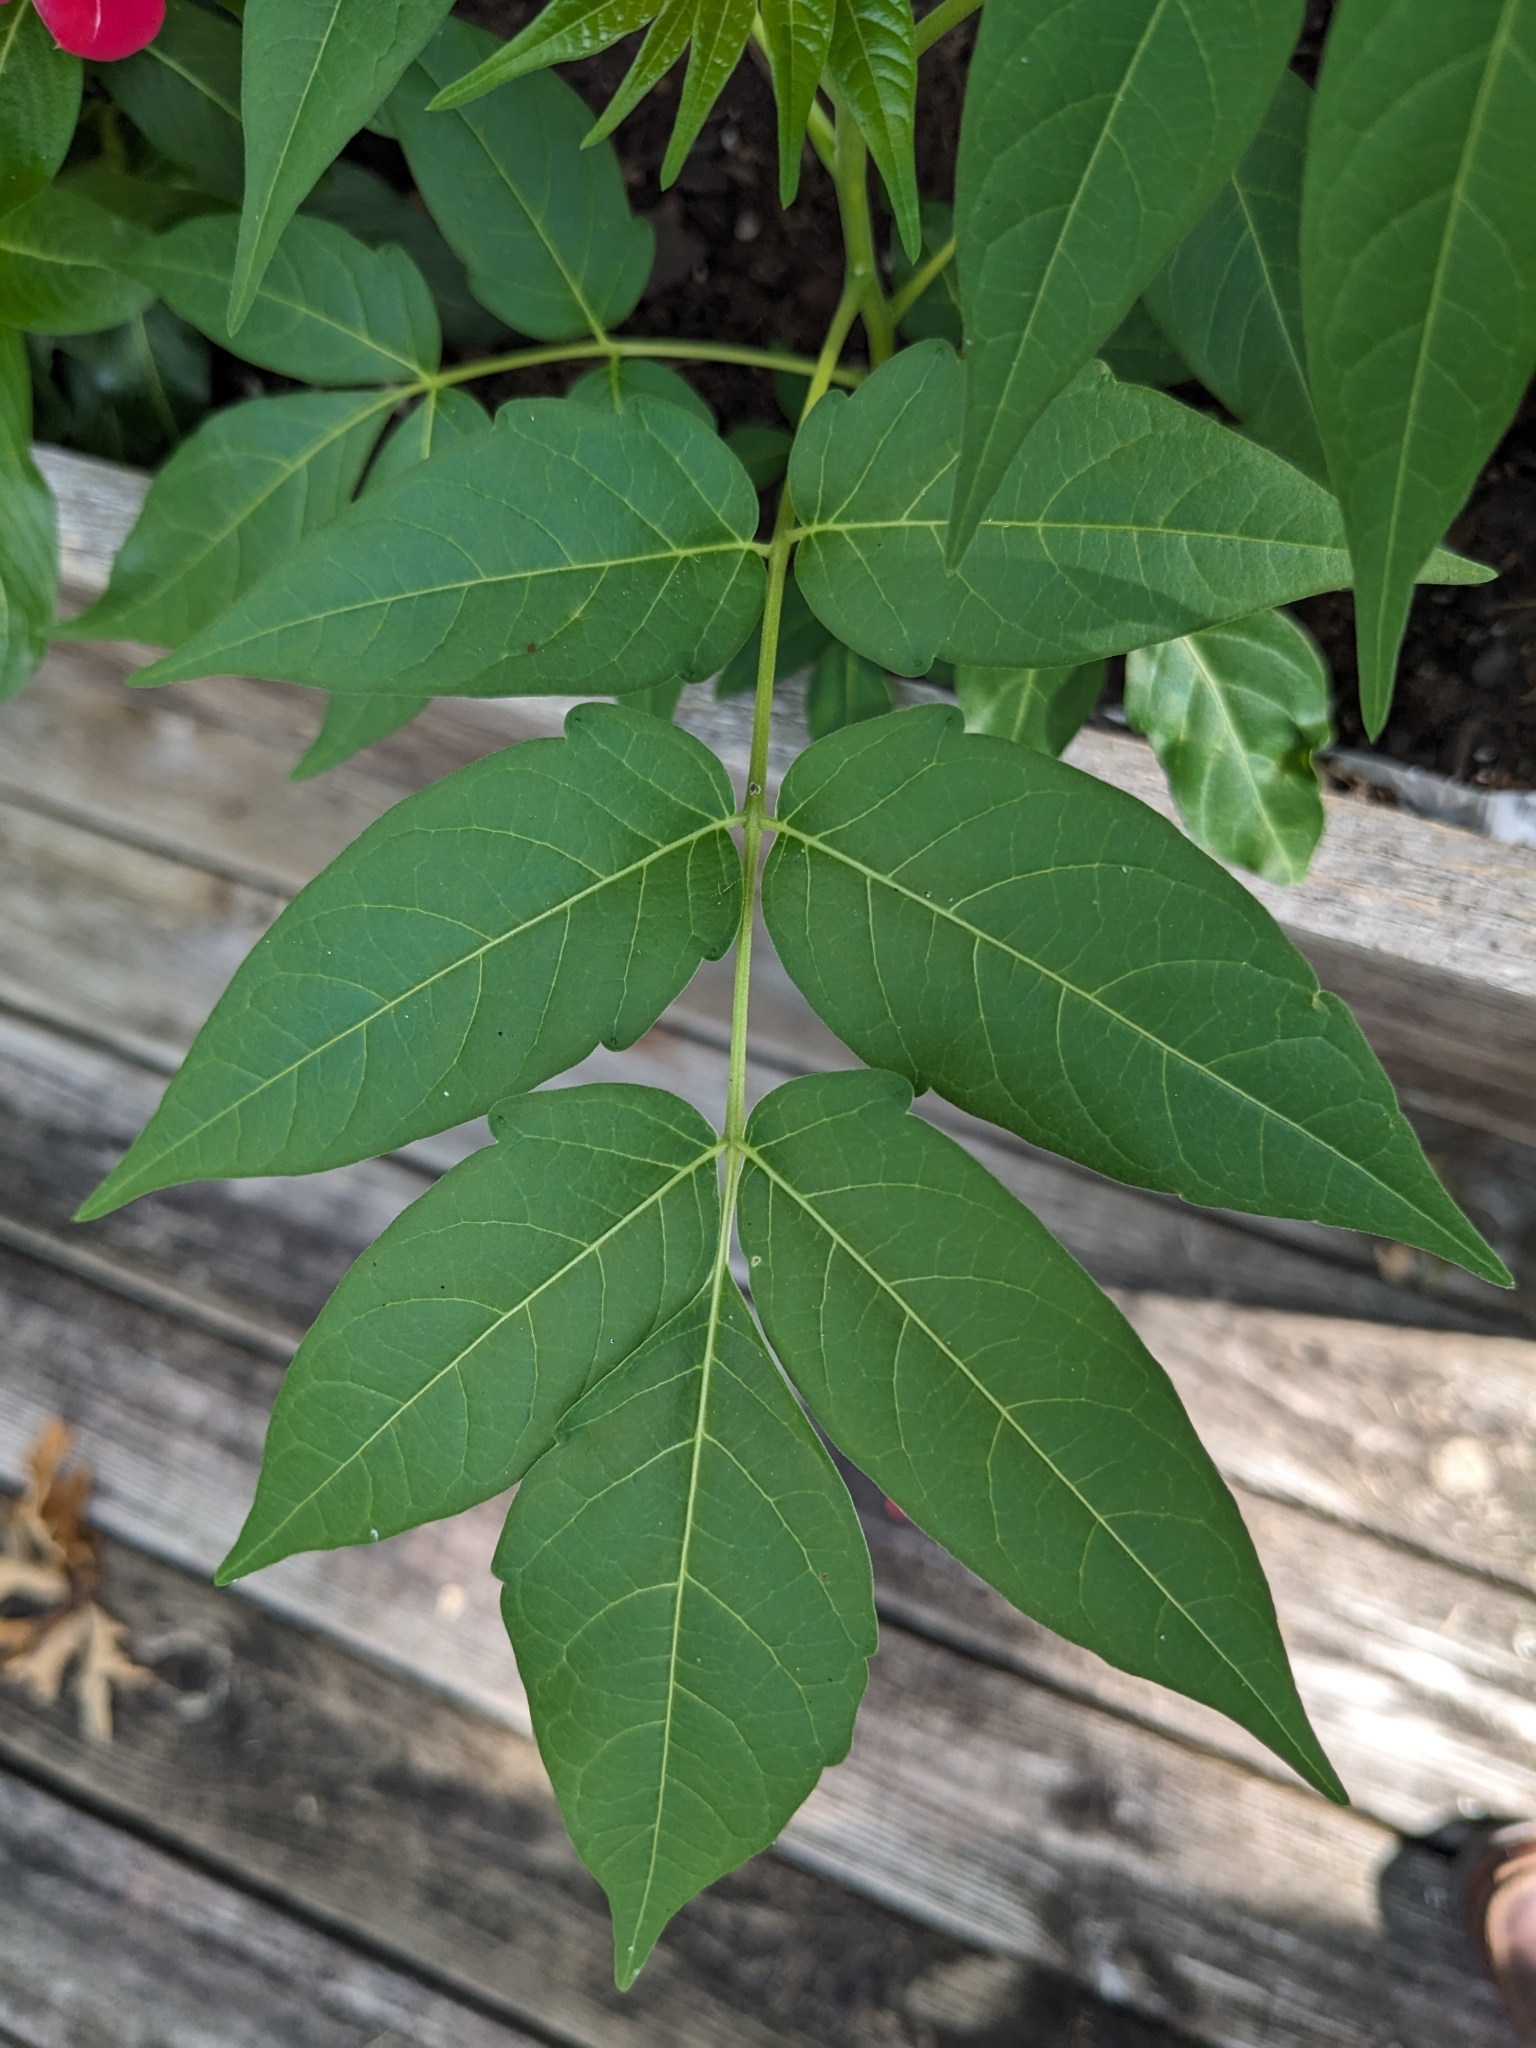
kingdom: Plantae
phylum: Tracheophyta
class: Magnoliopsida
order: Sapindales
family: Simaroubaceae
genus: Ailanthus
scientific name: Ailanthus altissima
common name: Tree-of-heaven
